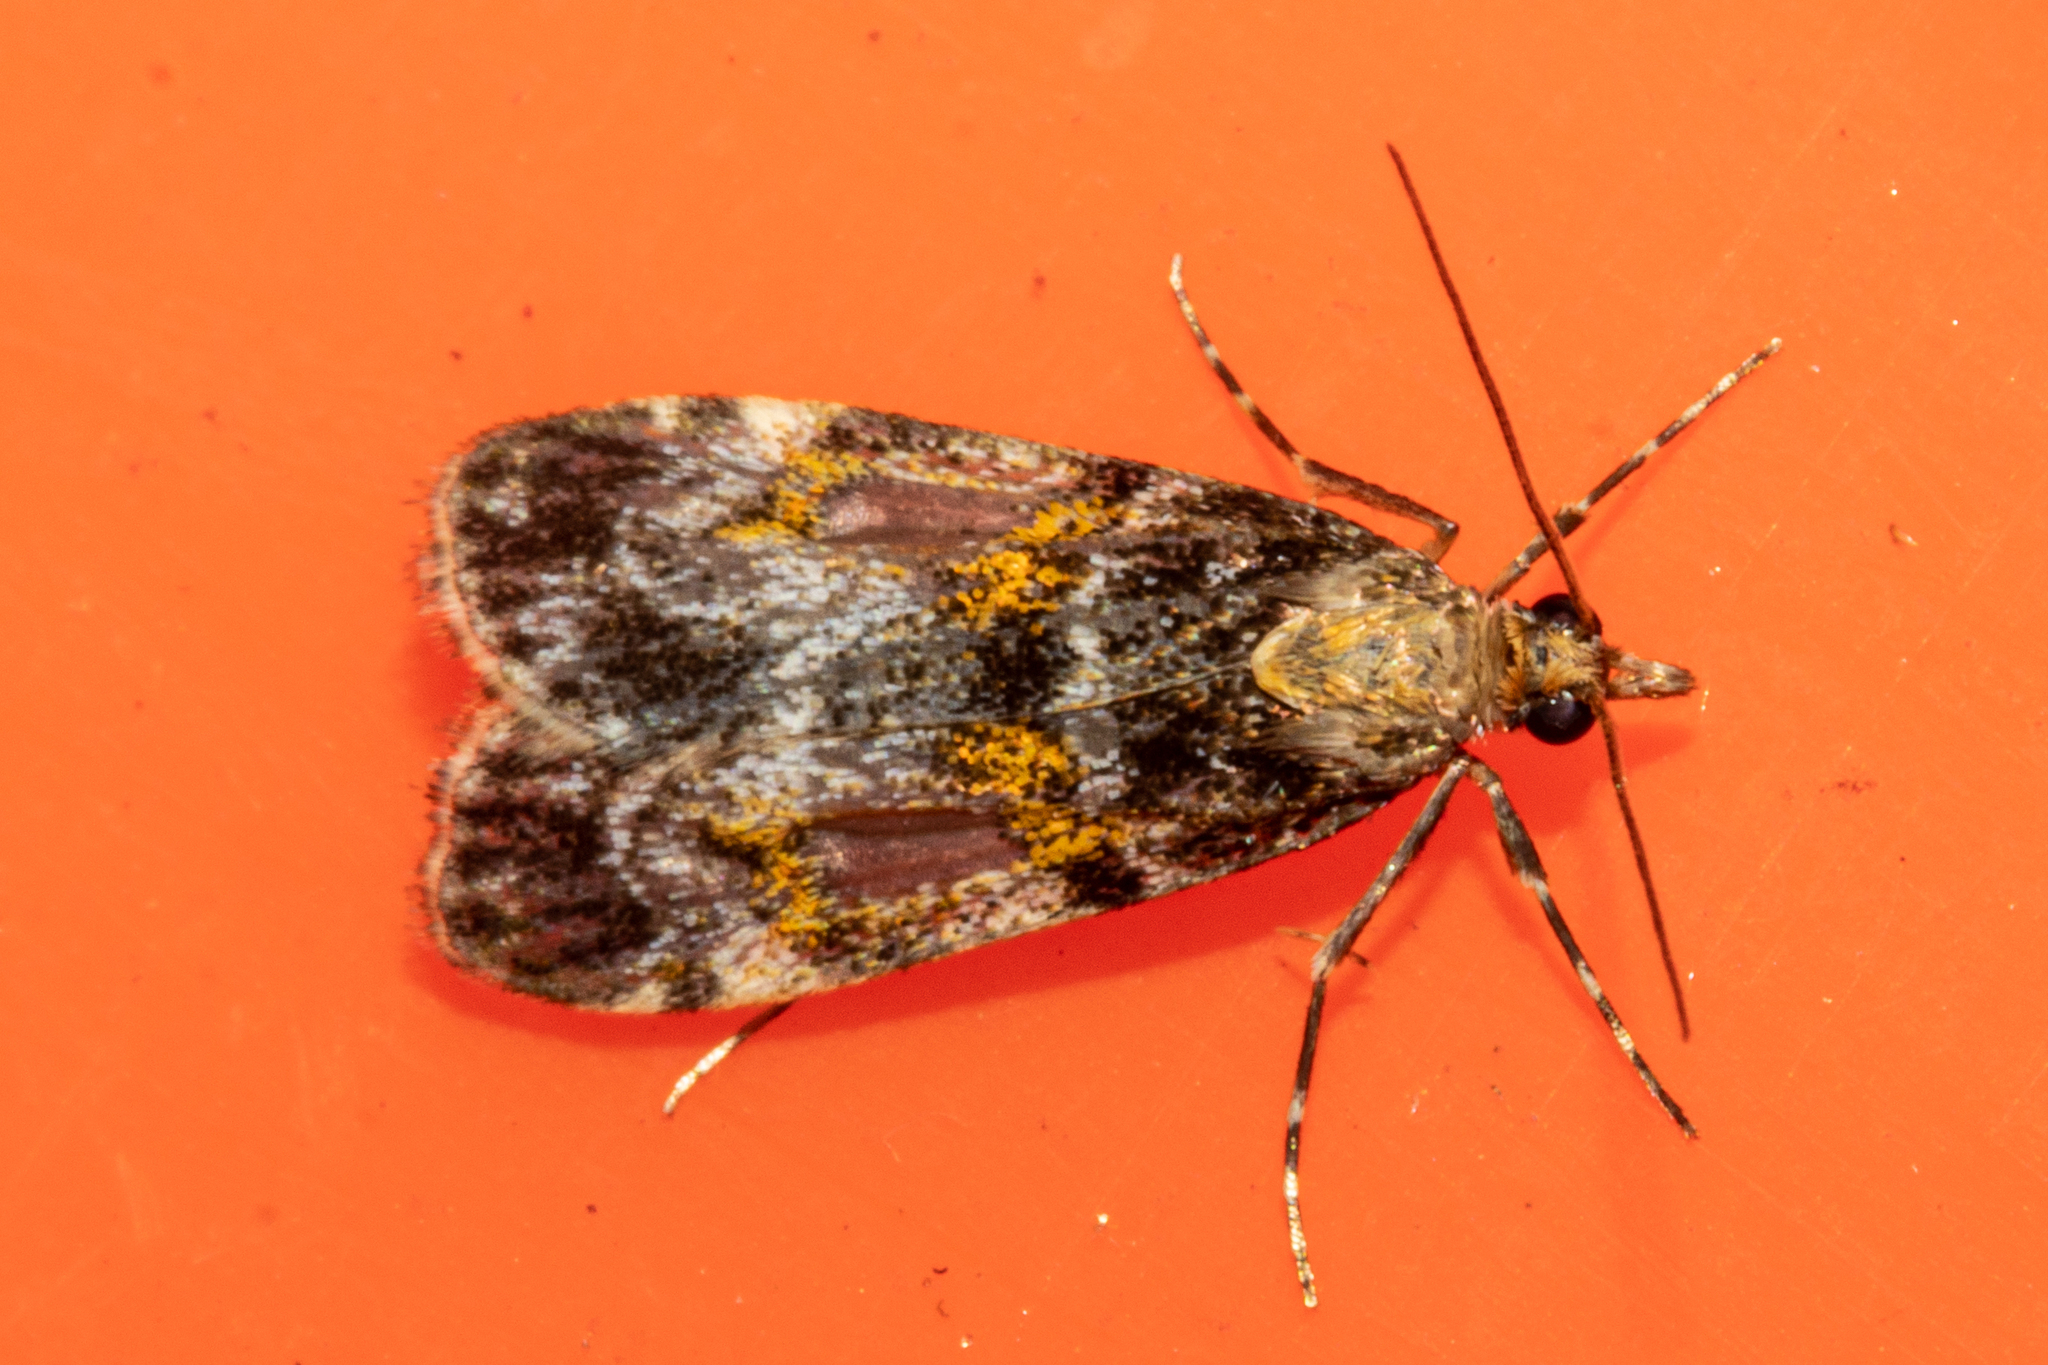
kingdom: Animalia
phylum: Arthropoda
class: Insecta
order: Lepidoptera
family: Crambidae
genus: Eudonia
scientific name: Eudonia thyridias
